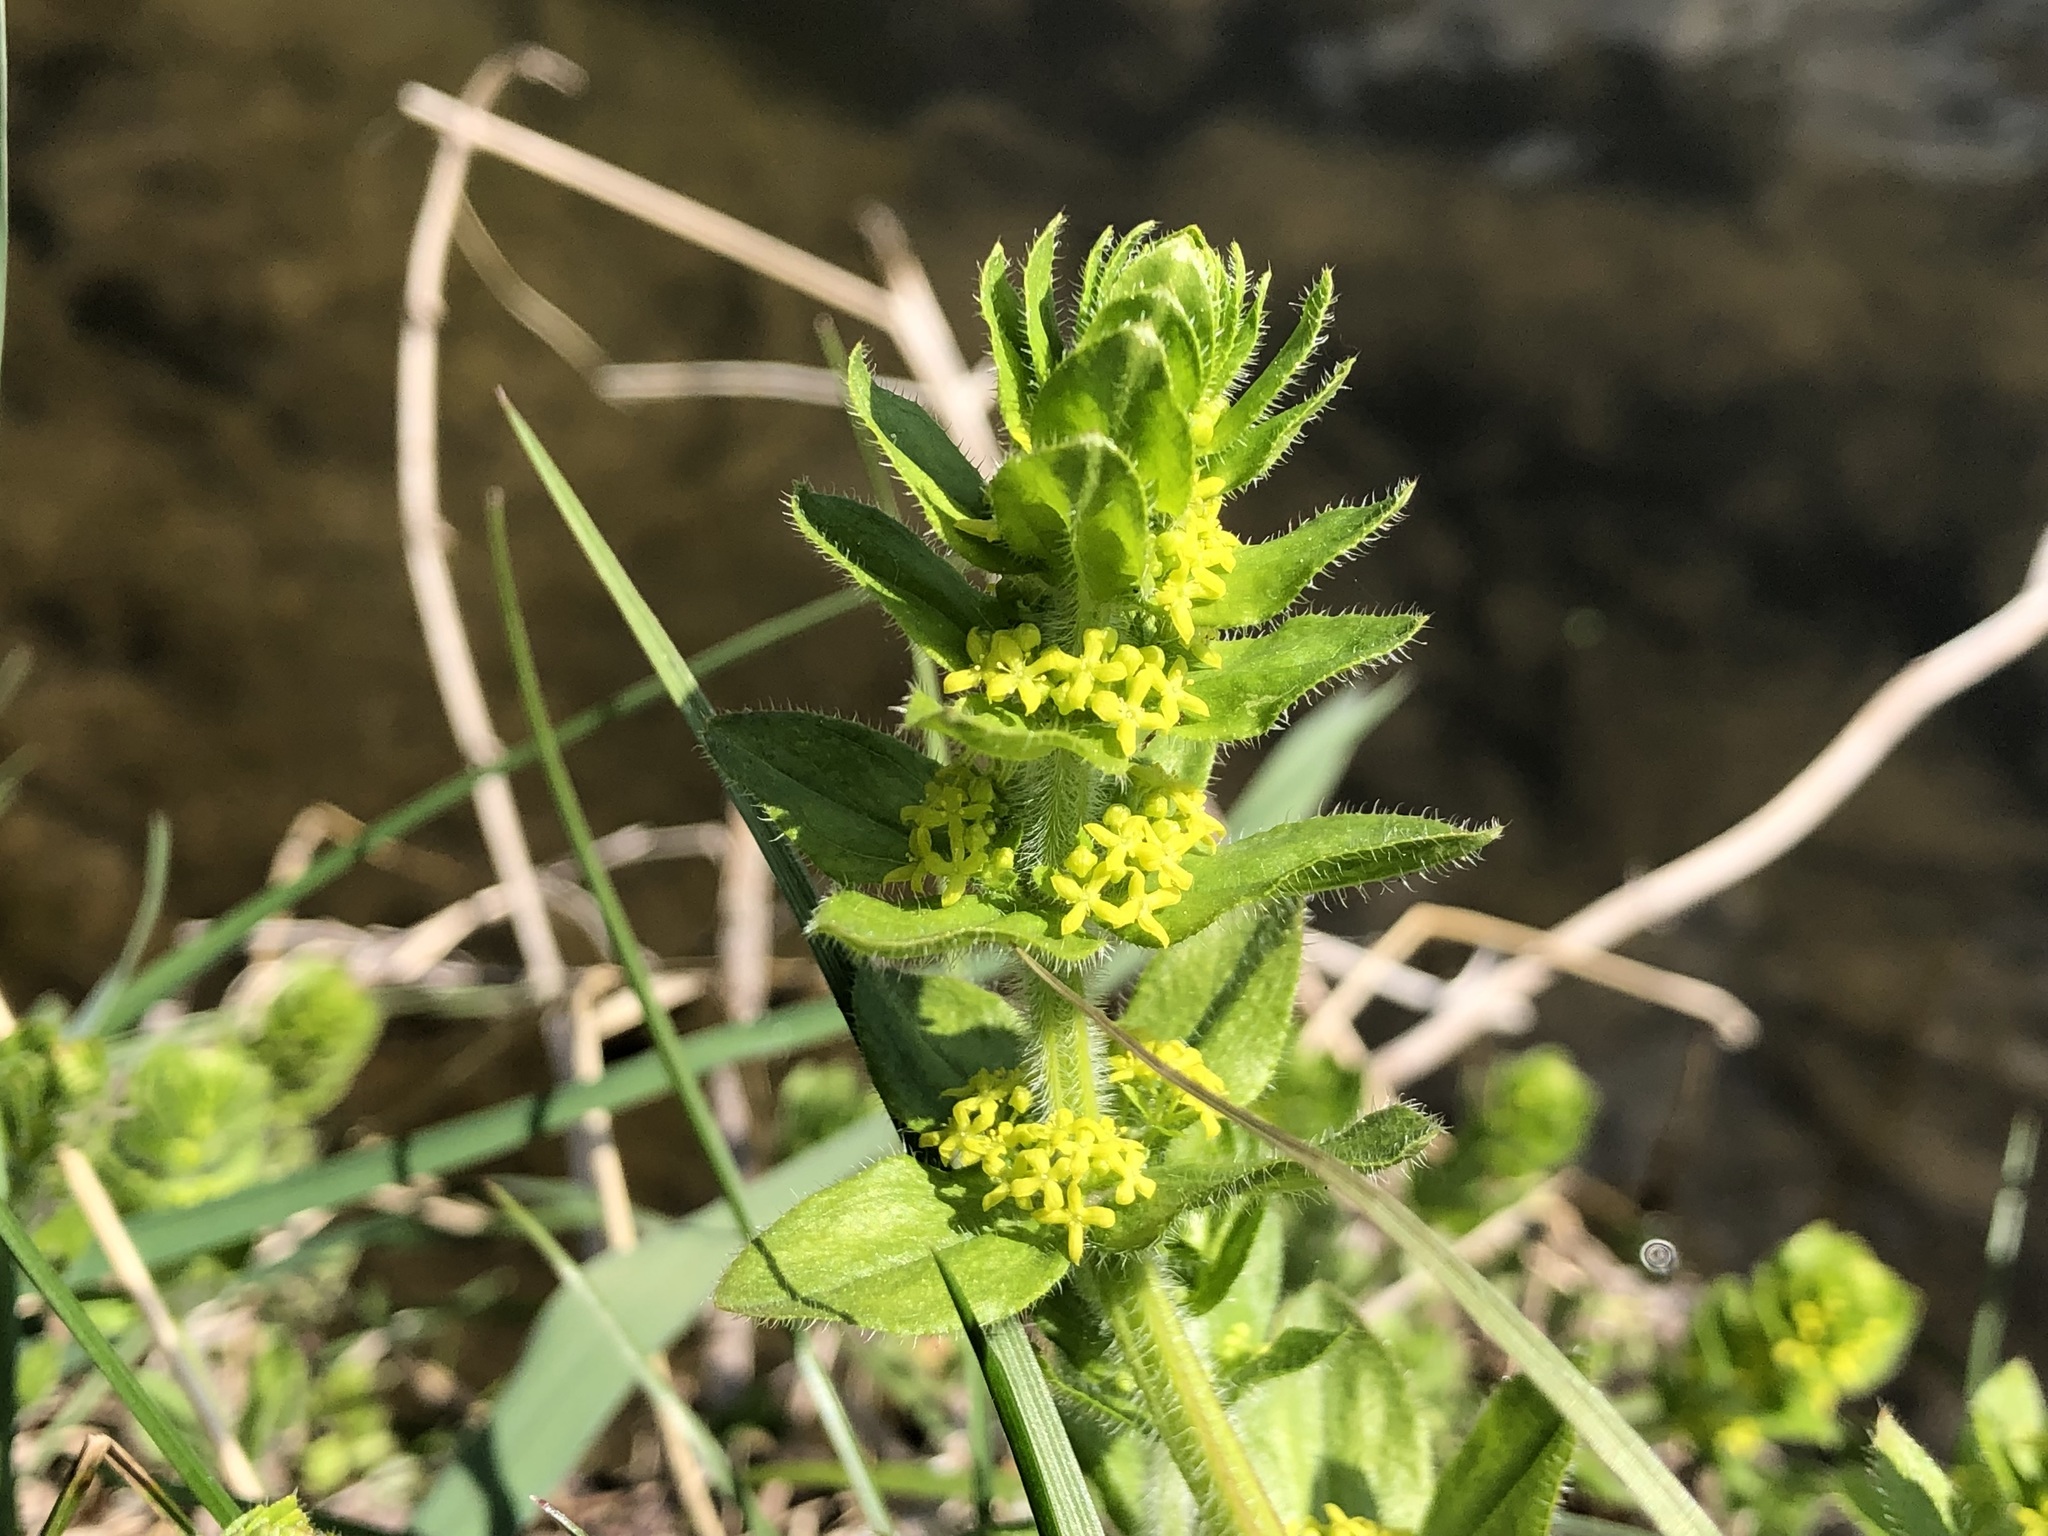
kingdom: Plantae
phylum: Tracheophyta
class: Magnoliopsida
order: Gentianales
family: Rubiaceae
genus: Cruciata
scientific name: Cruciata laevipes
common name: Crosswort
